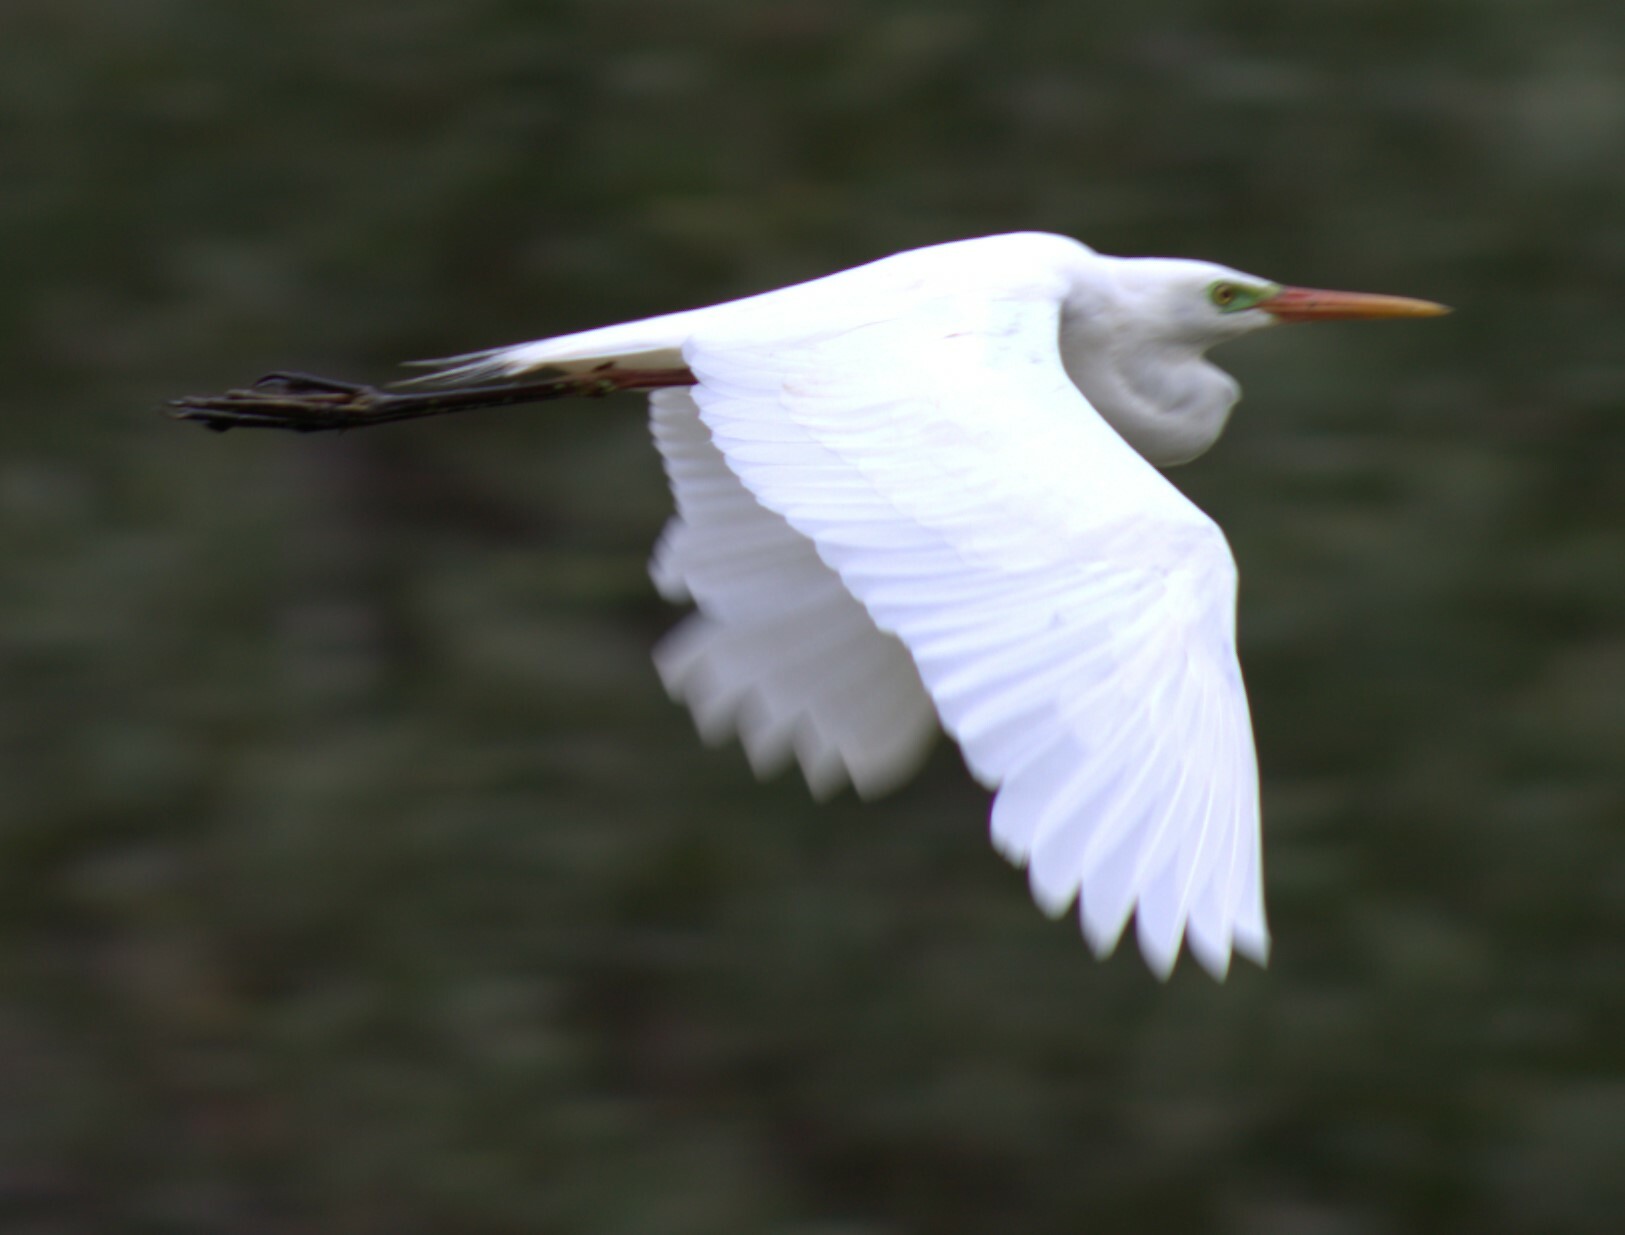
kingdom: Animalia
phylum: Chordata
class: Aves
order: Pelecaniformes
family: Ardeidae
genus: Egretta
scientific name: Egretta intermedia
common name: Intermediate egret
